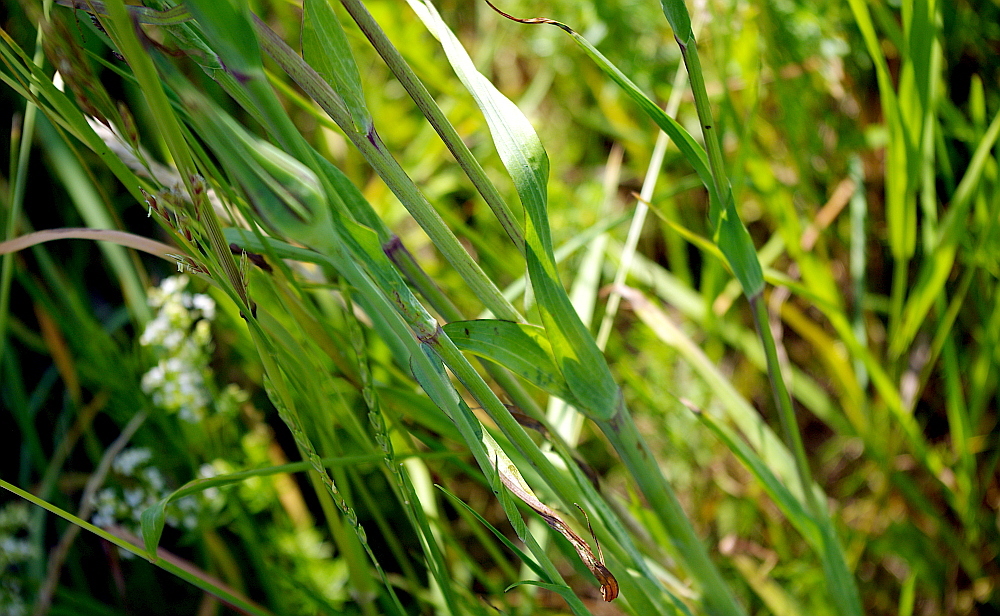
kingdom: Plantae
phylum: Tracheophyta
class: Magnoliopsida
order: Asterales
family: Asteraceae
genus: Tragopogon
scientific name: Tragopogon orientalis
